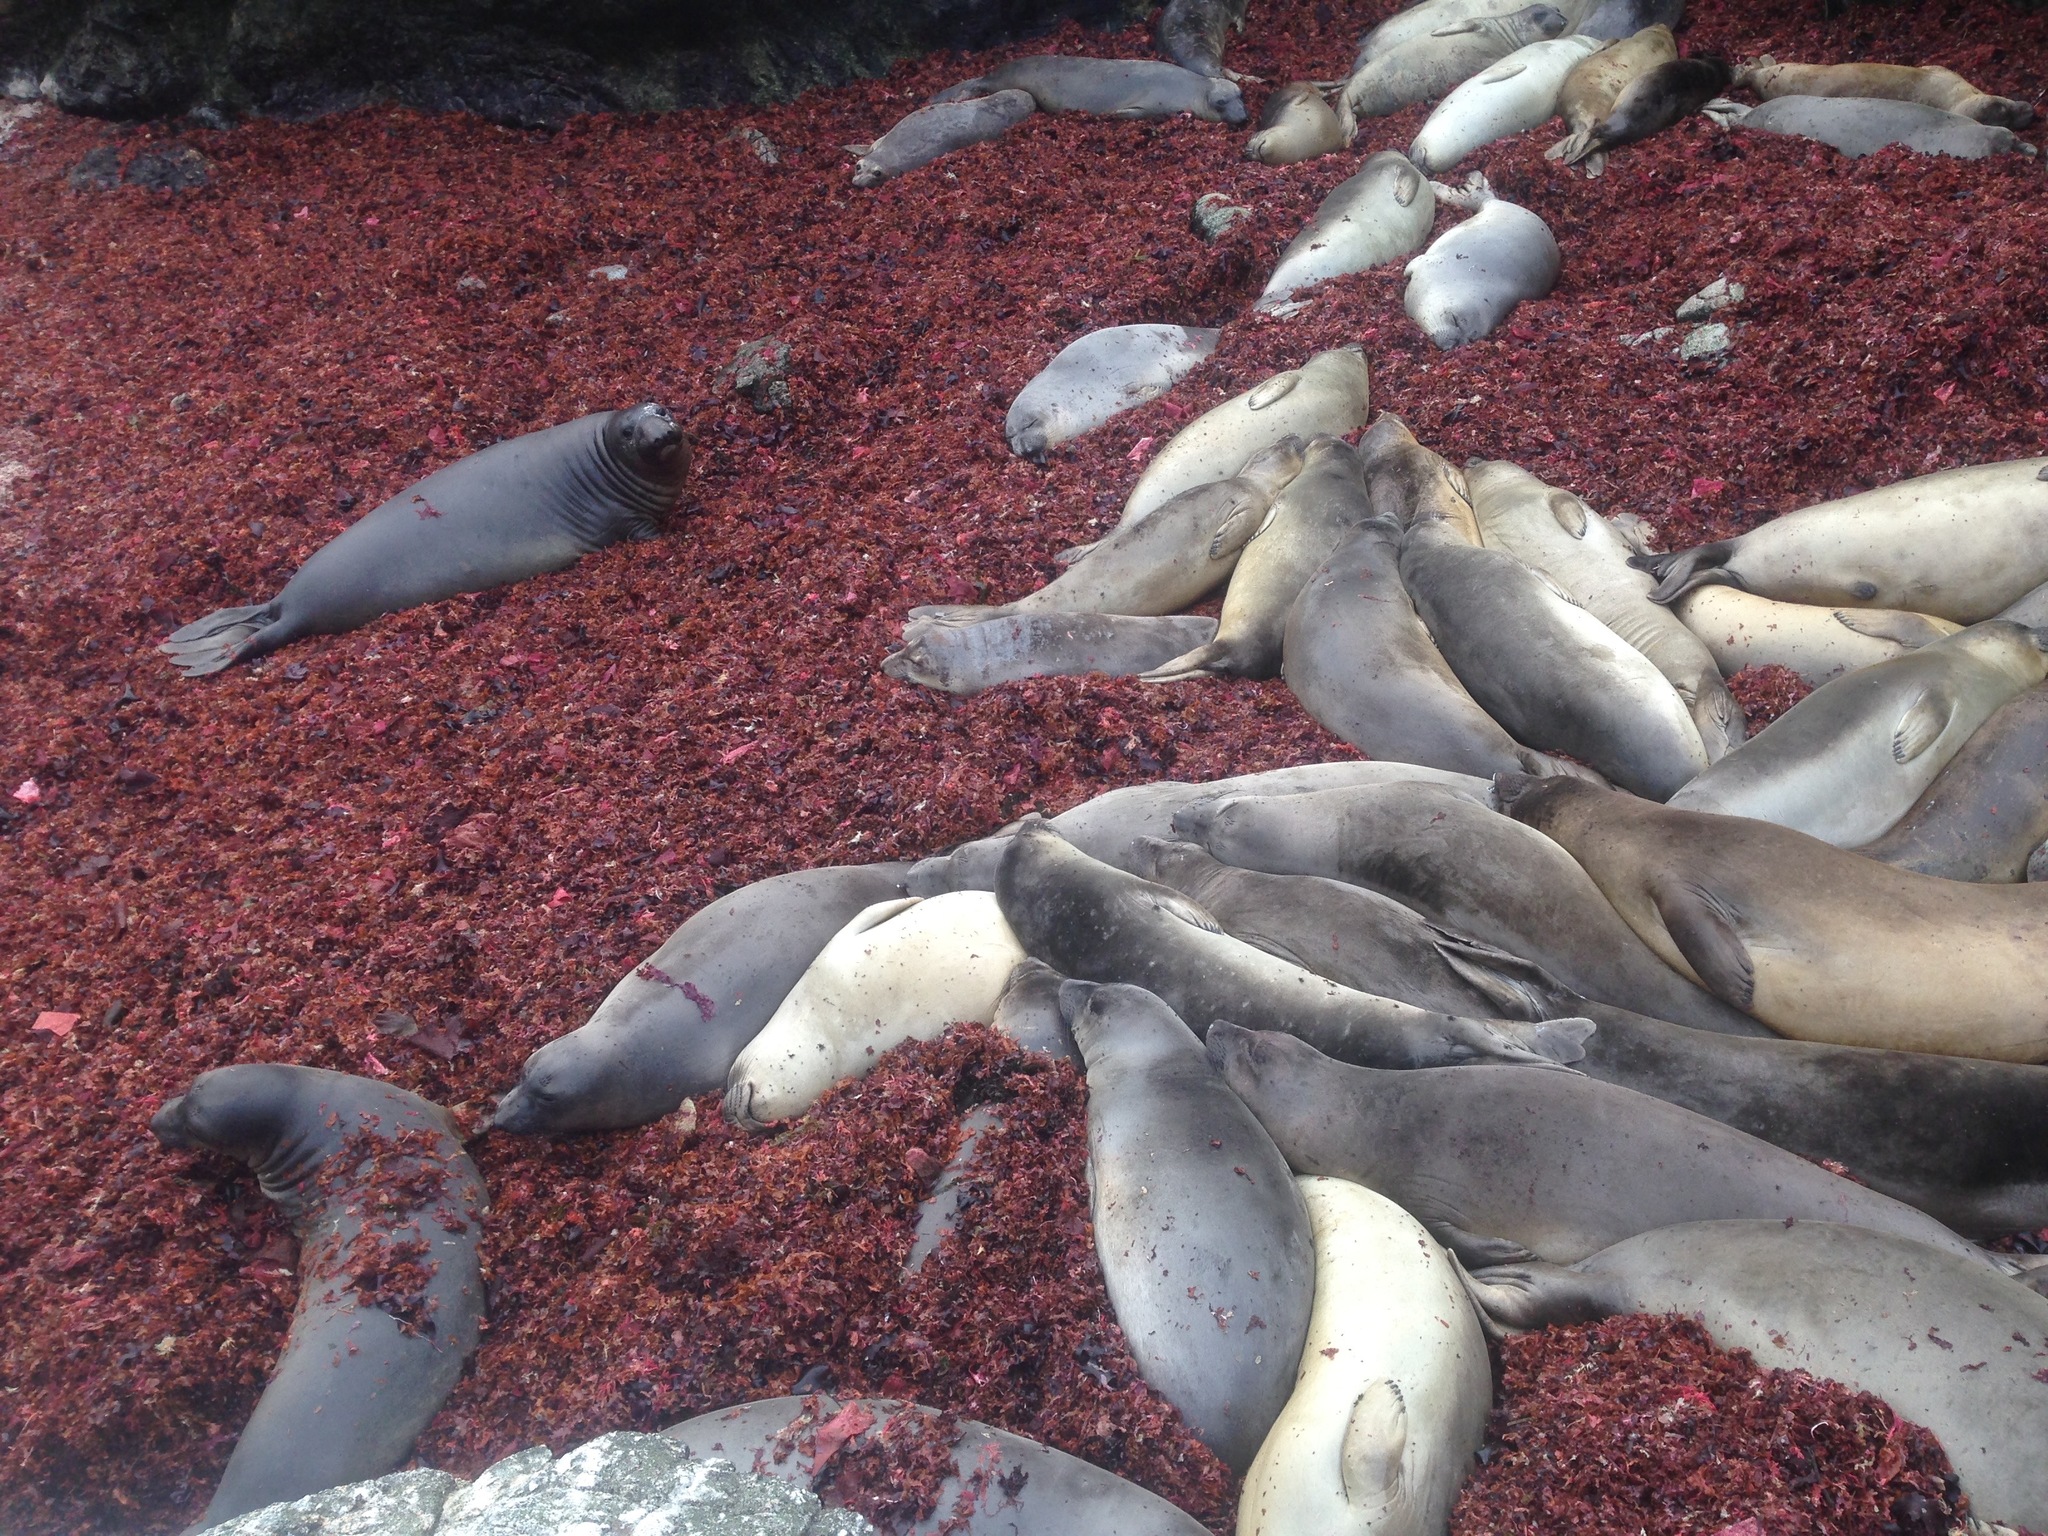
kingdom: Animalia
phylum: Chordata
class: Mammalia
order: Carnivora
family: Phocidae
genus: Mirounga
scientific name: Mirounga angustirostris
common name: Northern elephant seal
